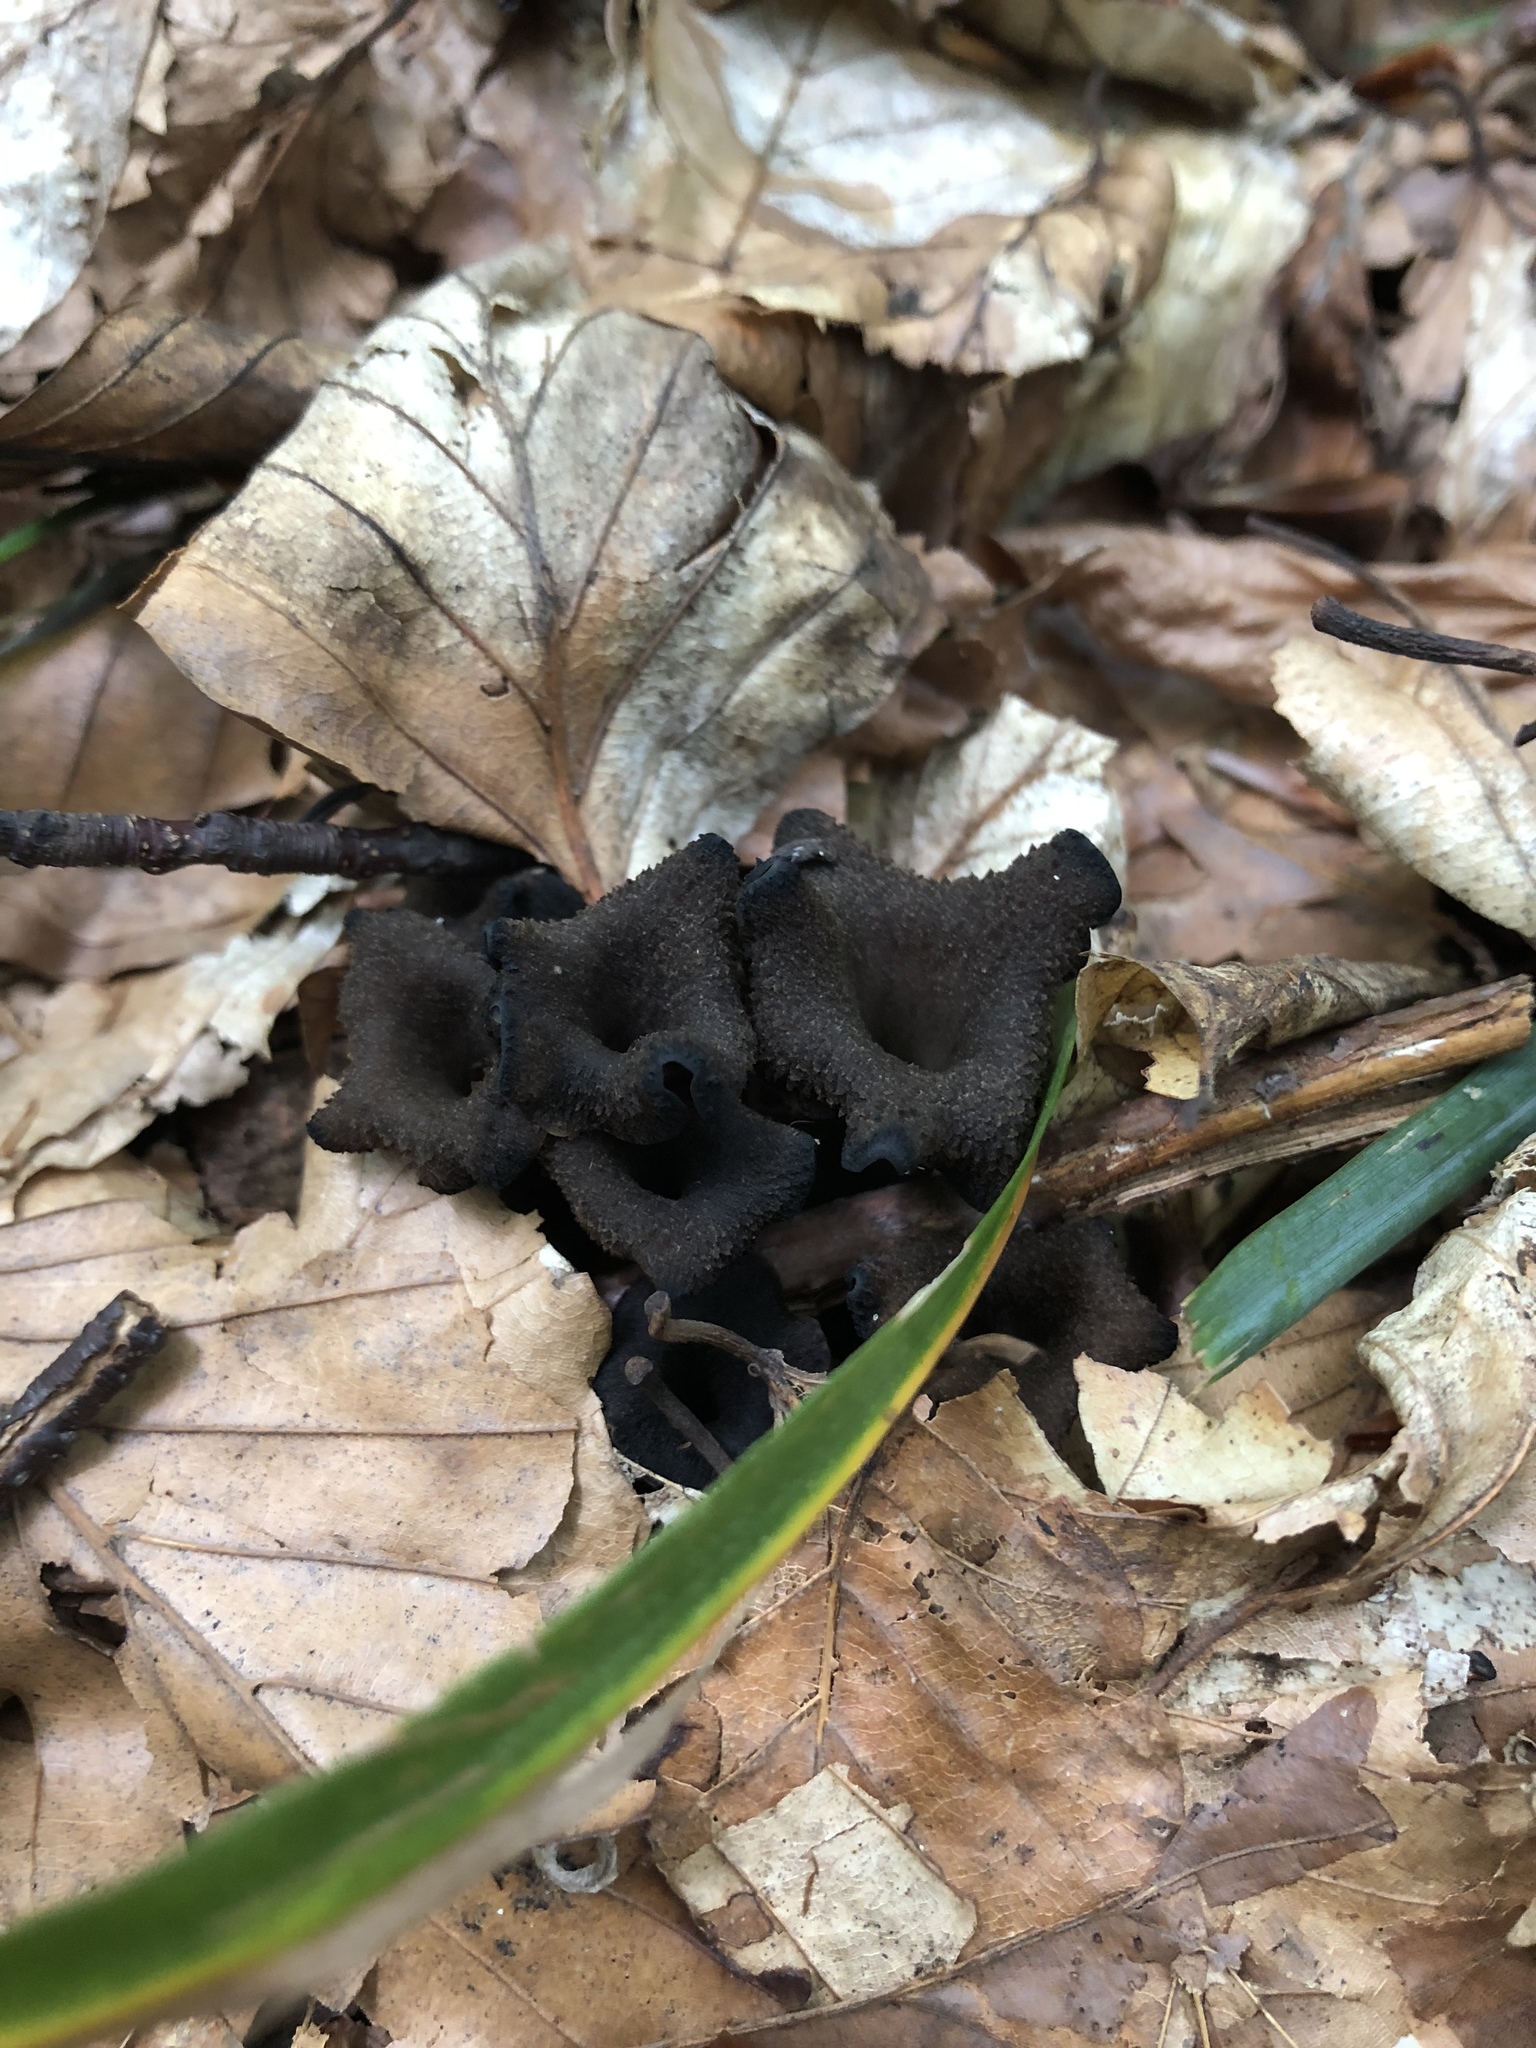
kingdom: Fungi
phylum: Basidiomycota
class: Agaricomycetes
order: Cantharellales
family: Hydnaceae
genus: Craterellus
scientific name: Craterellus cornucopioides
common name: Horn of plenty
